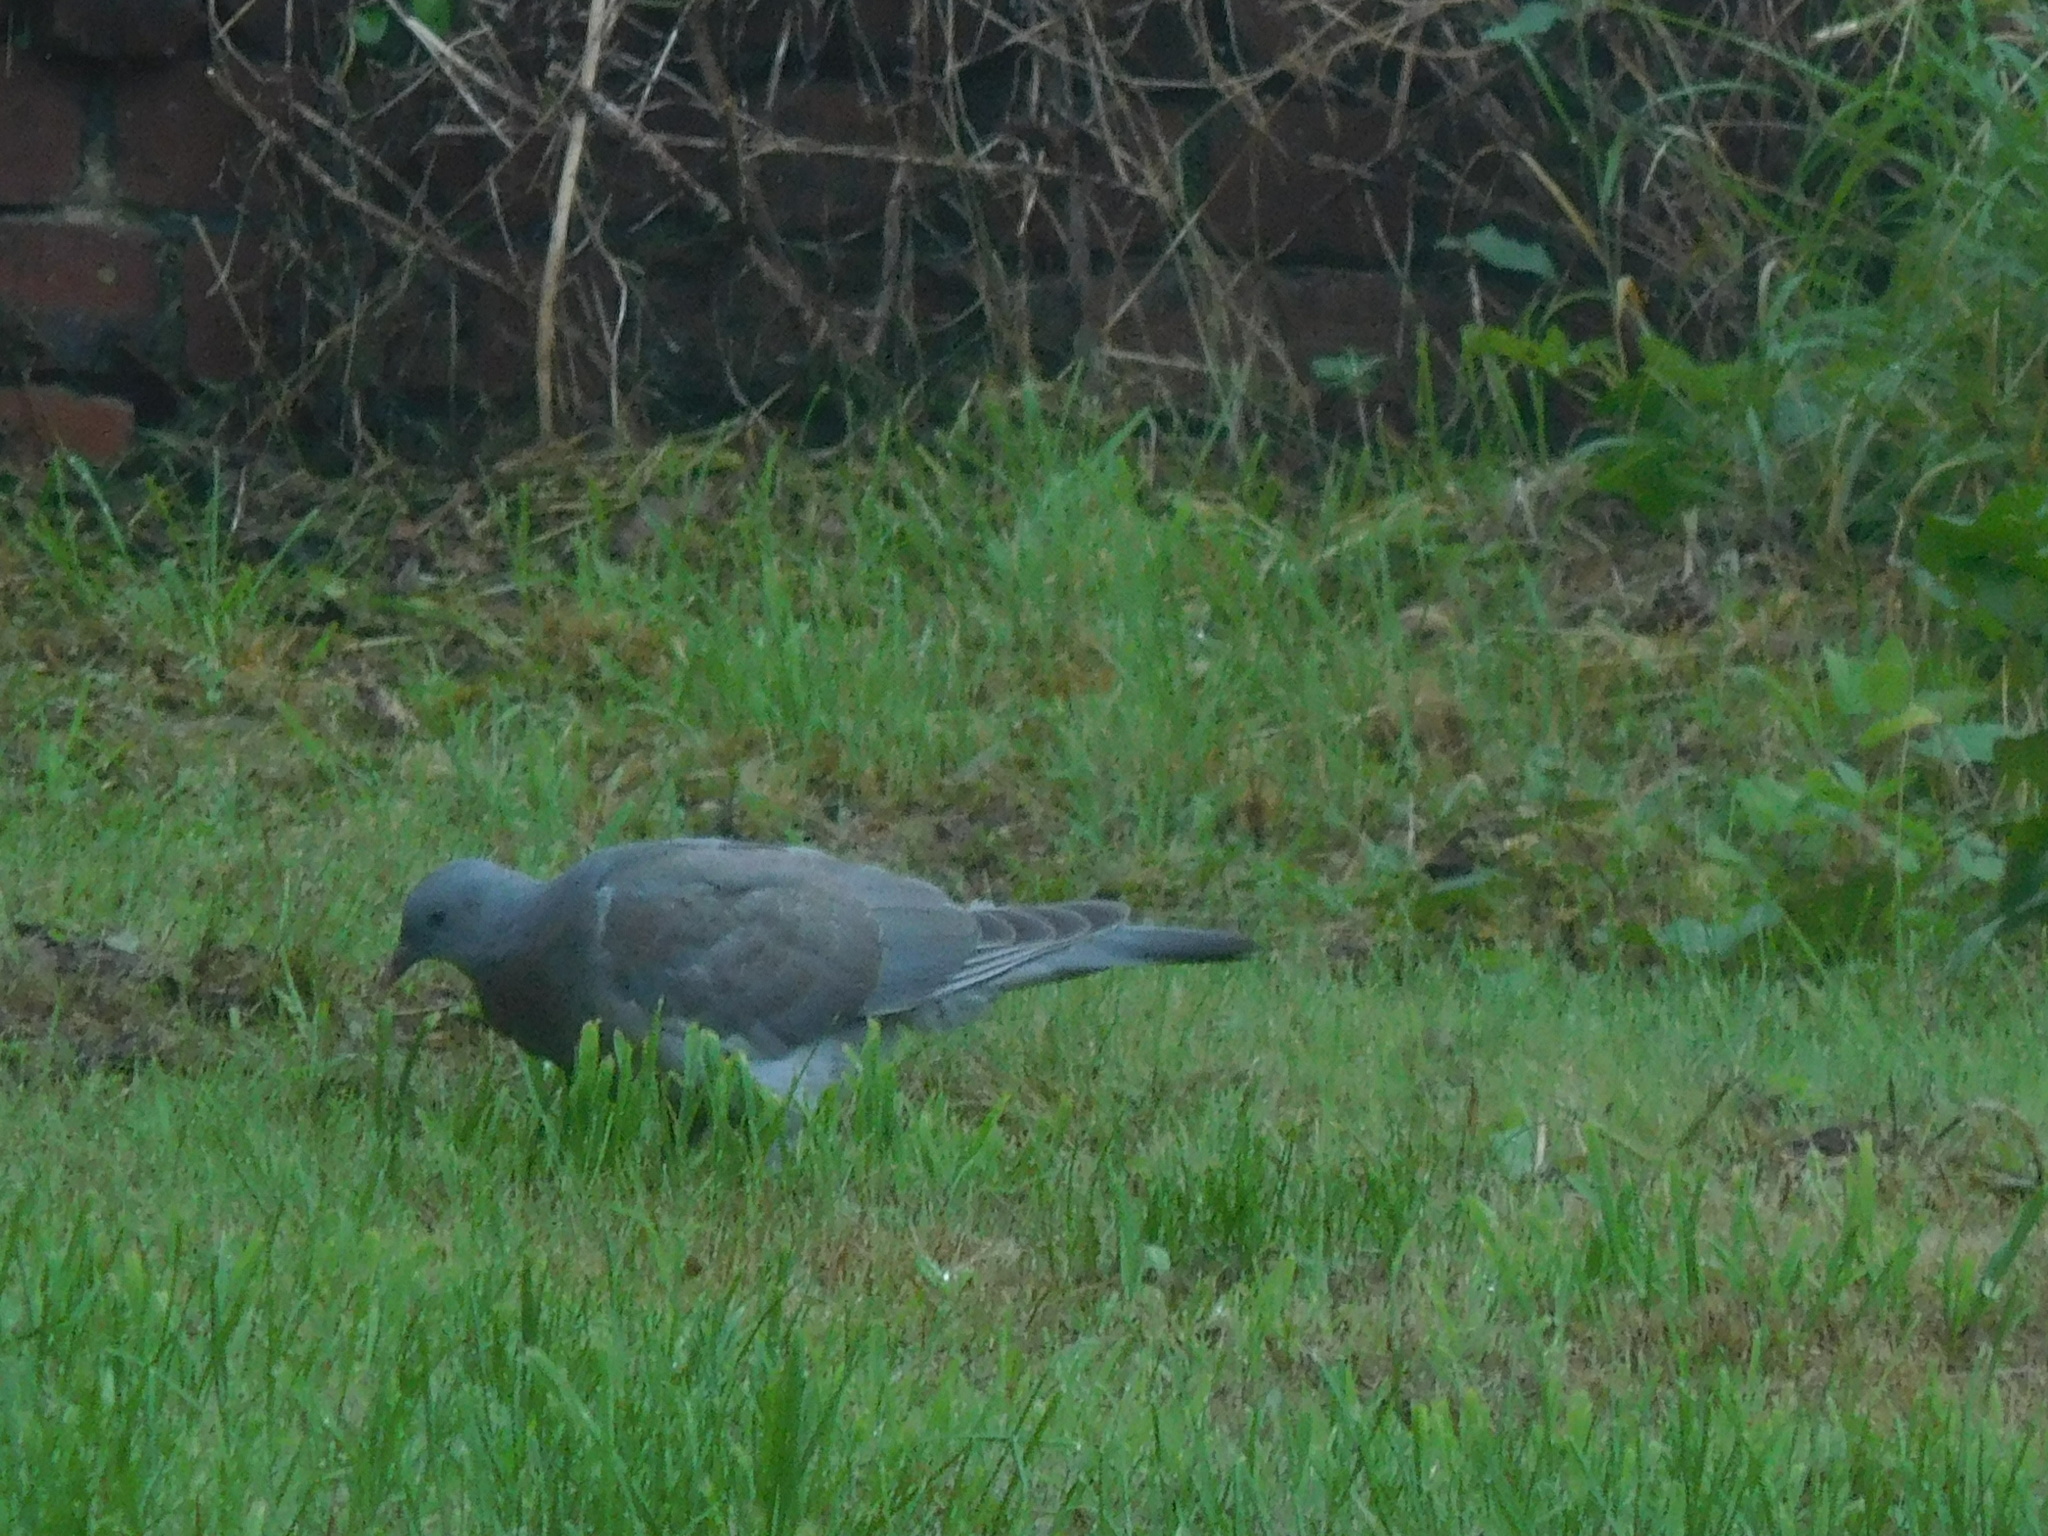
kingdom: Animalia
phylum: Chordata
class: Aves
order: Columbiformes
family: Columbidae
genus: Columba
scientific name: Columba palumbus
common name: Common wood pigeon
